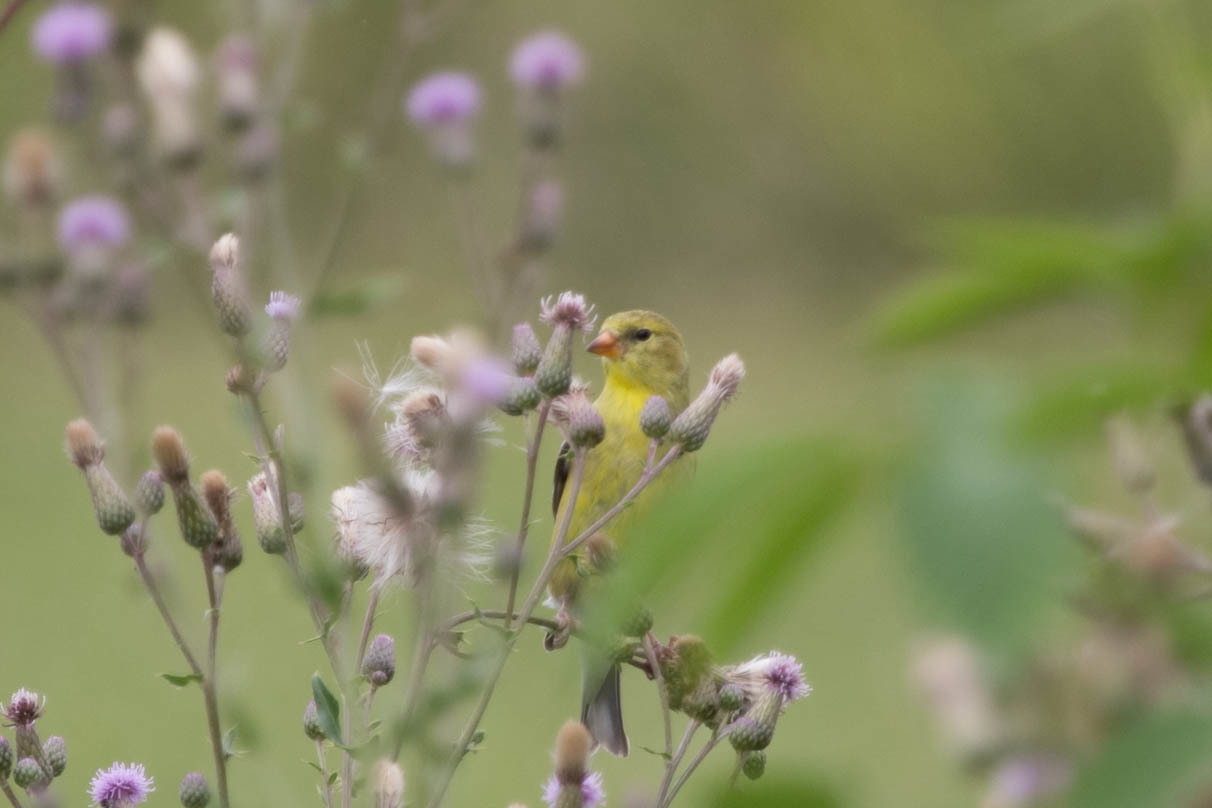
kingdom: Animalia
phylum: Chordata
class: Aves
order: Passeriformes
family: Fringillidae
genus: Spinus
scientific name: Spinus tristis
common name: American goldfinch
